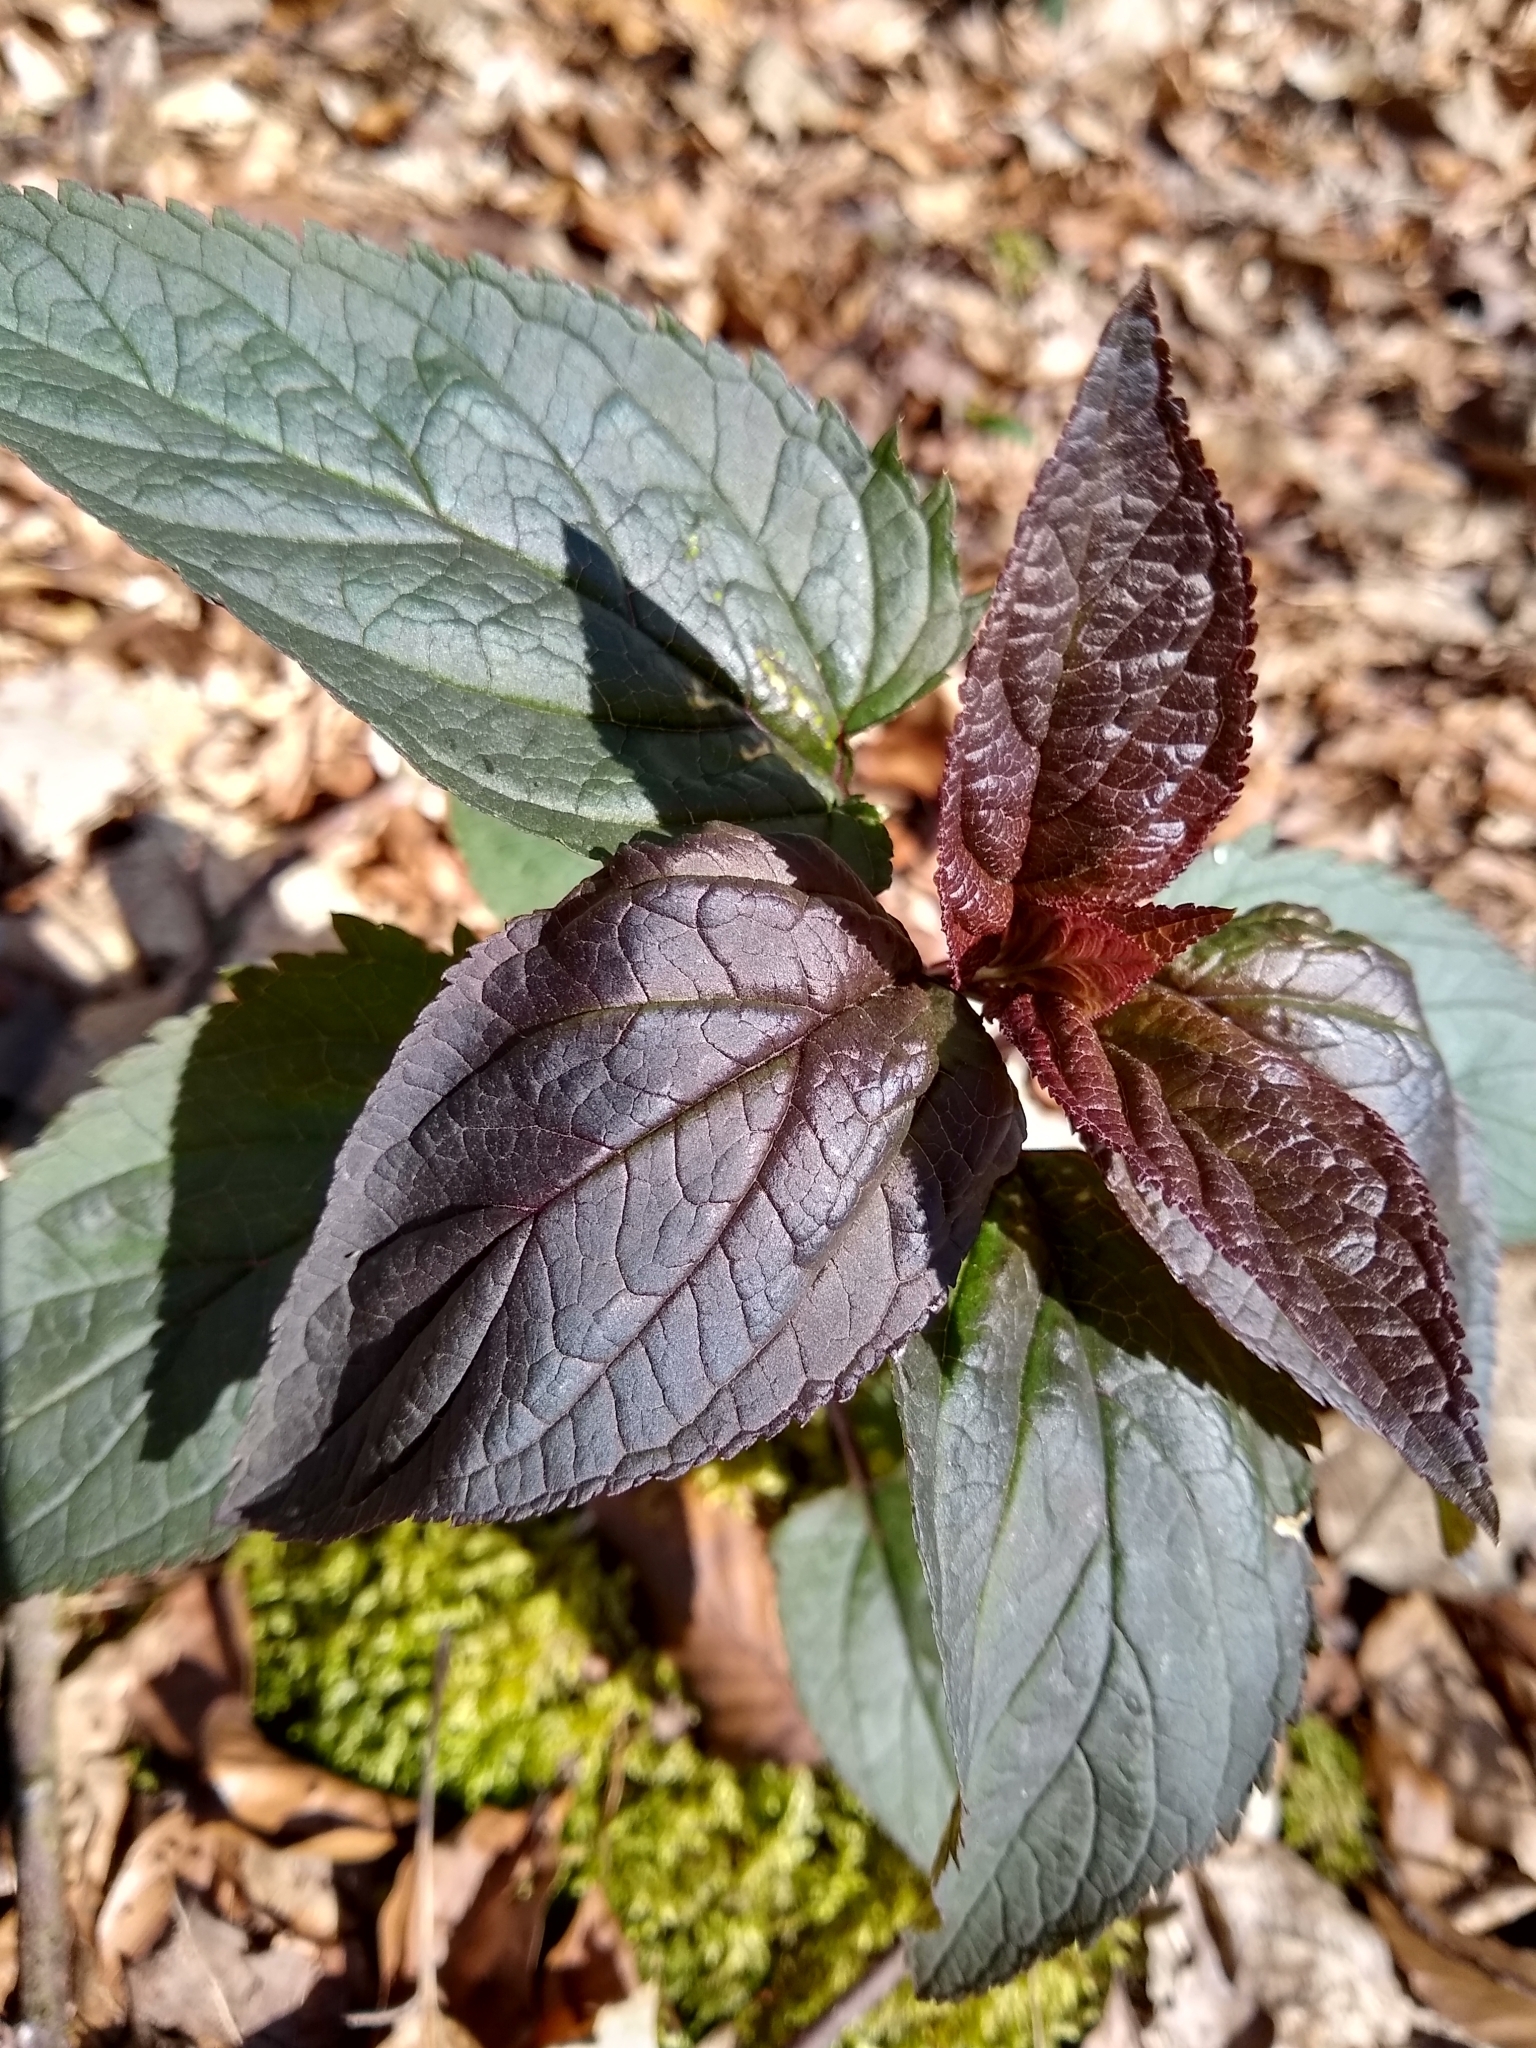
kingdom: Plantae
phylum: Tracheophyta
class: Magnoliopsida
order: Lamiales
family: Scrophulariaceae
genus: Scrophularia
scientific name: Scrophularia nodosa
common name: Common figwort
